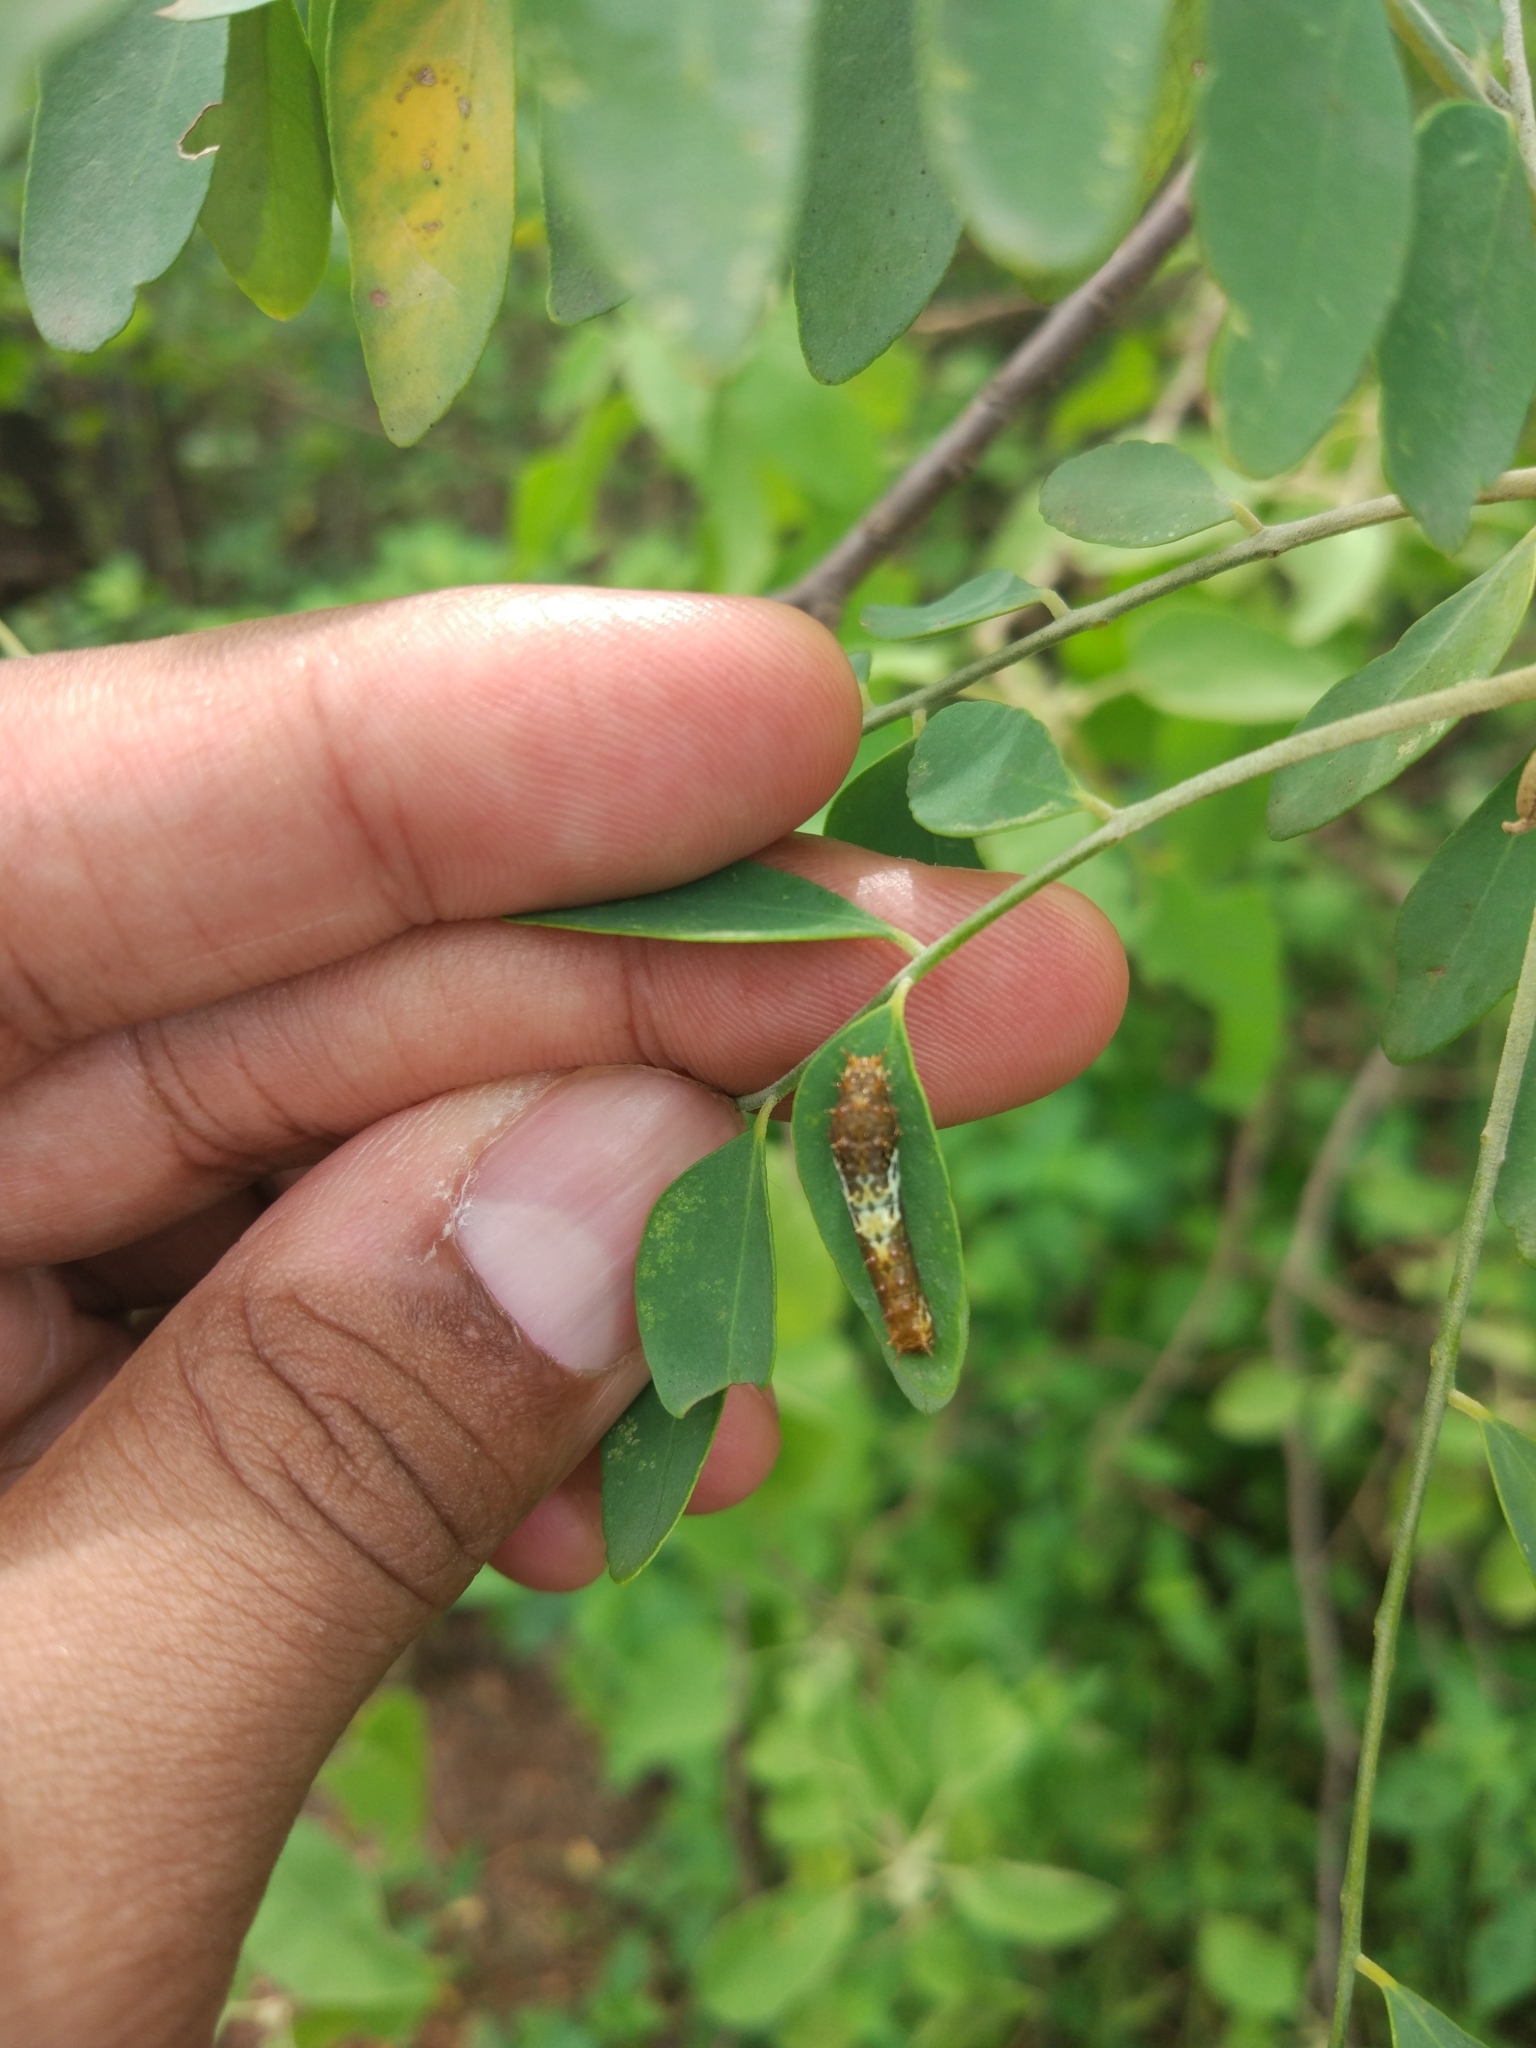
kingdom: Animalia
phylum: Arthropoda
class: Insecta
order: Lepidoptera
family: Papilionidae
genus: Papilio
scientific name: Papilio demoleus
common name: Lime butterfly
